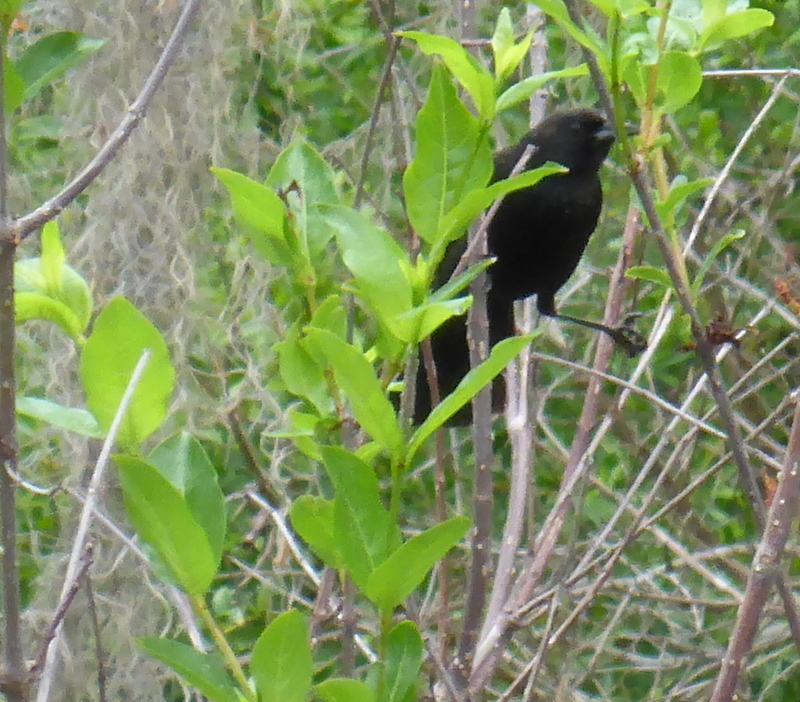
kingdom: Animalia
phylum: Chordata
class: Aves
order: Passeriformes
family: Icteridae
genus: Agelaius
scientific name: Agelaius phoeniceus
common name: Red-winged blackbird
